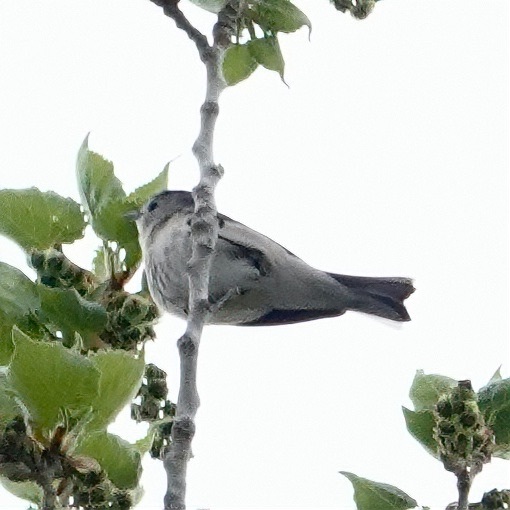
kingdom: Animalia
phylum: Chordata
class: Aves
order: Passeriformes
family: Parulidae
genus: Leiothlypis
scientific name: Leiothlypis luciae
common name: Lucy's warbler
